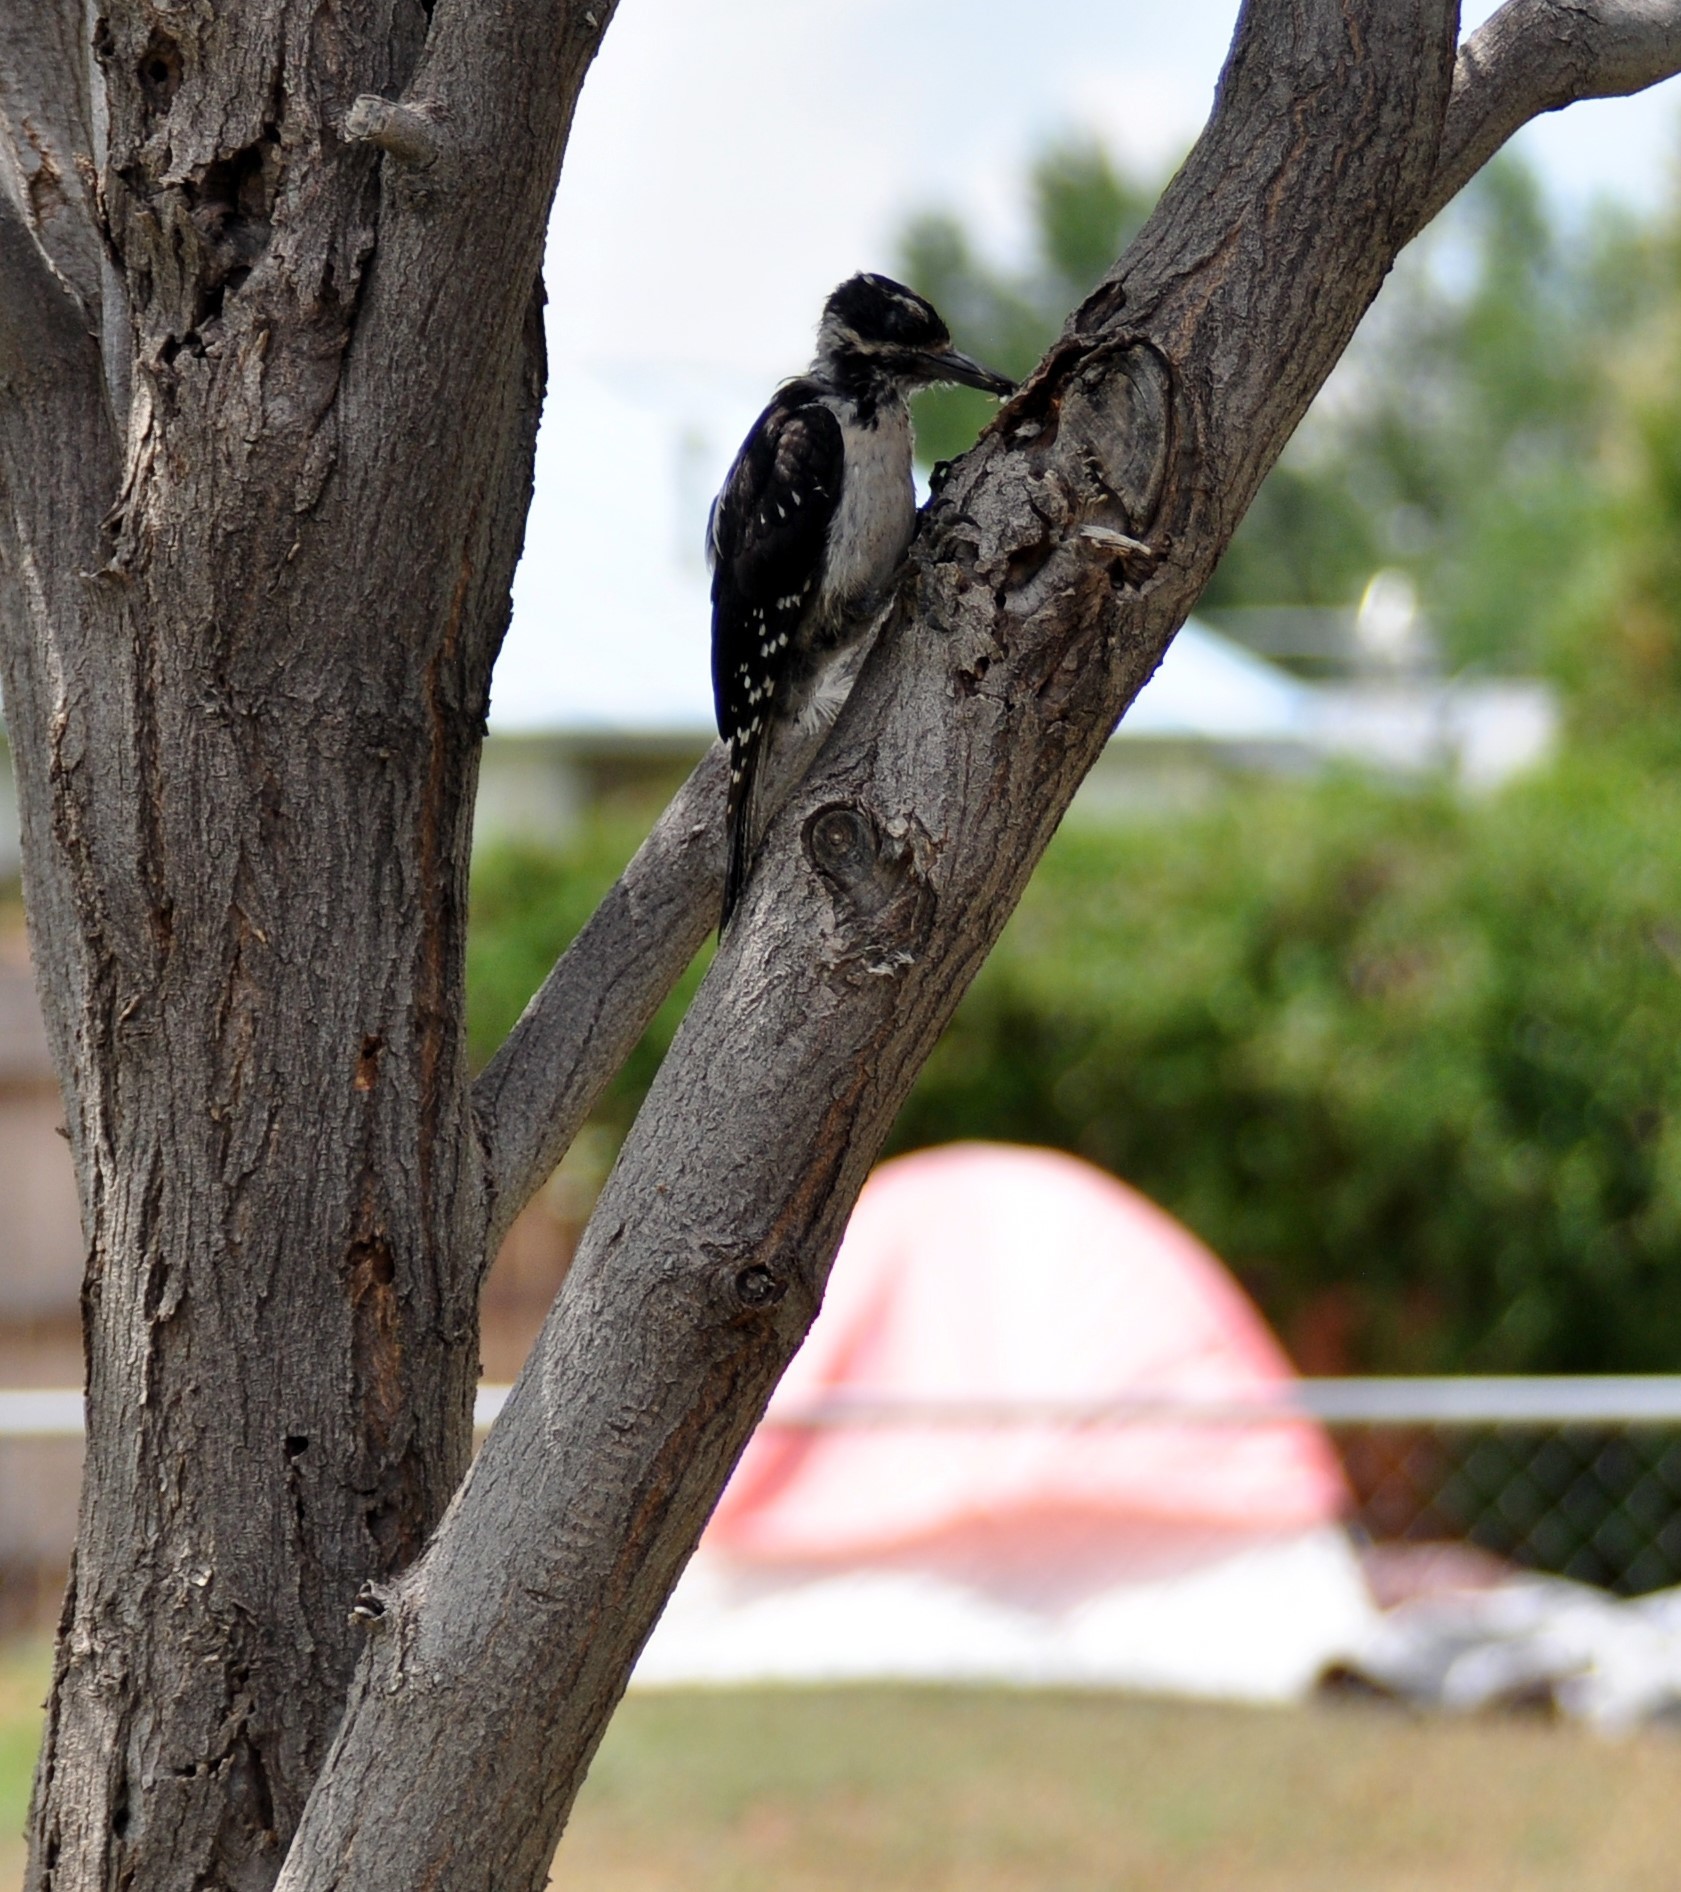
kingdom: Animalia
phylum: Chordata
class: Aves
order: Piciformes
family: Picidae
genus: Leuconotopicus
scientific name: Leuconotopicus villosus
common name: Hairy woodpecker
